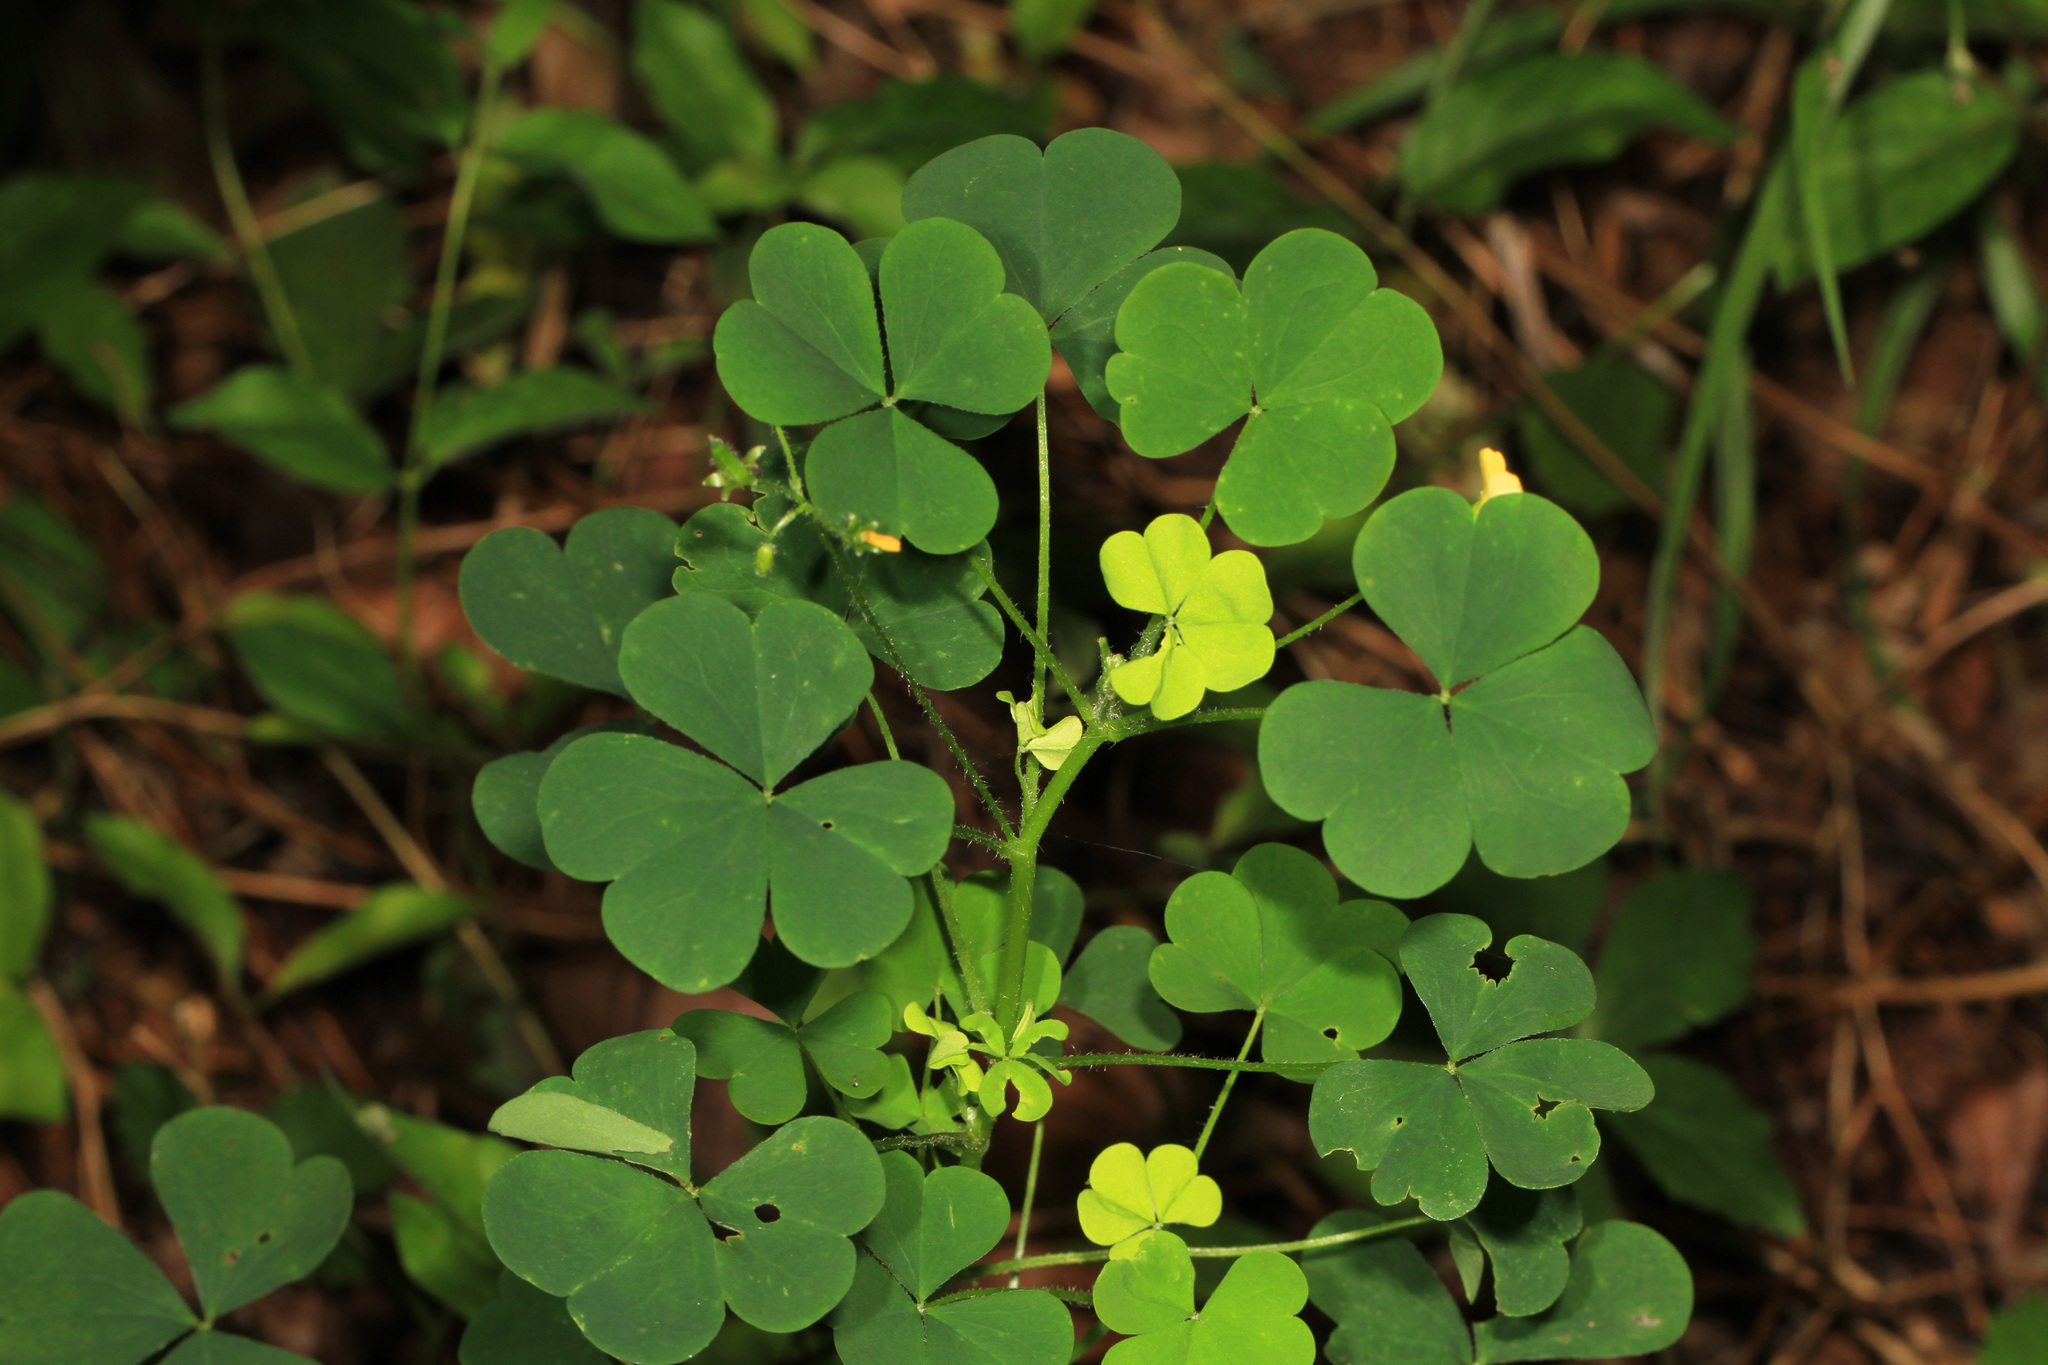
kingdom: Plantae
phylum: Tracheophyta
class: Magnoliopsida
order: Oxalidales
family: Oxalidaceae
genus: Oxalis
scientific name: Oxalis stricta
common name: Upright yellow-sorrel
